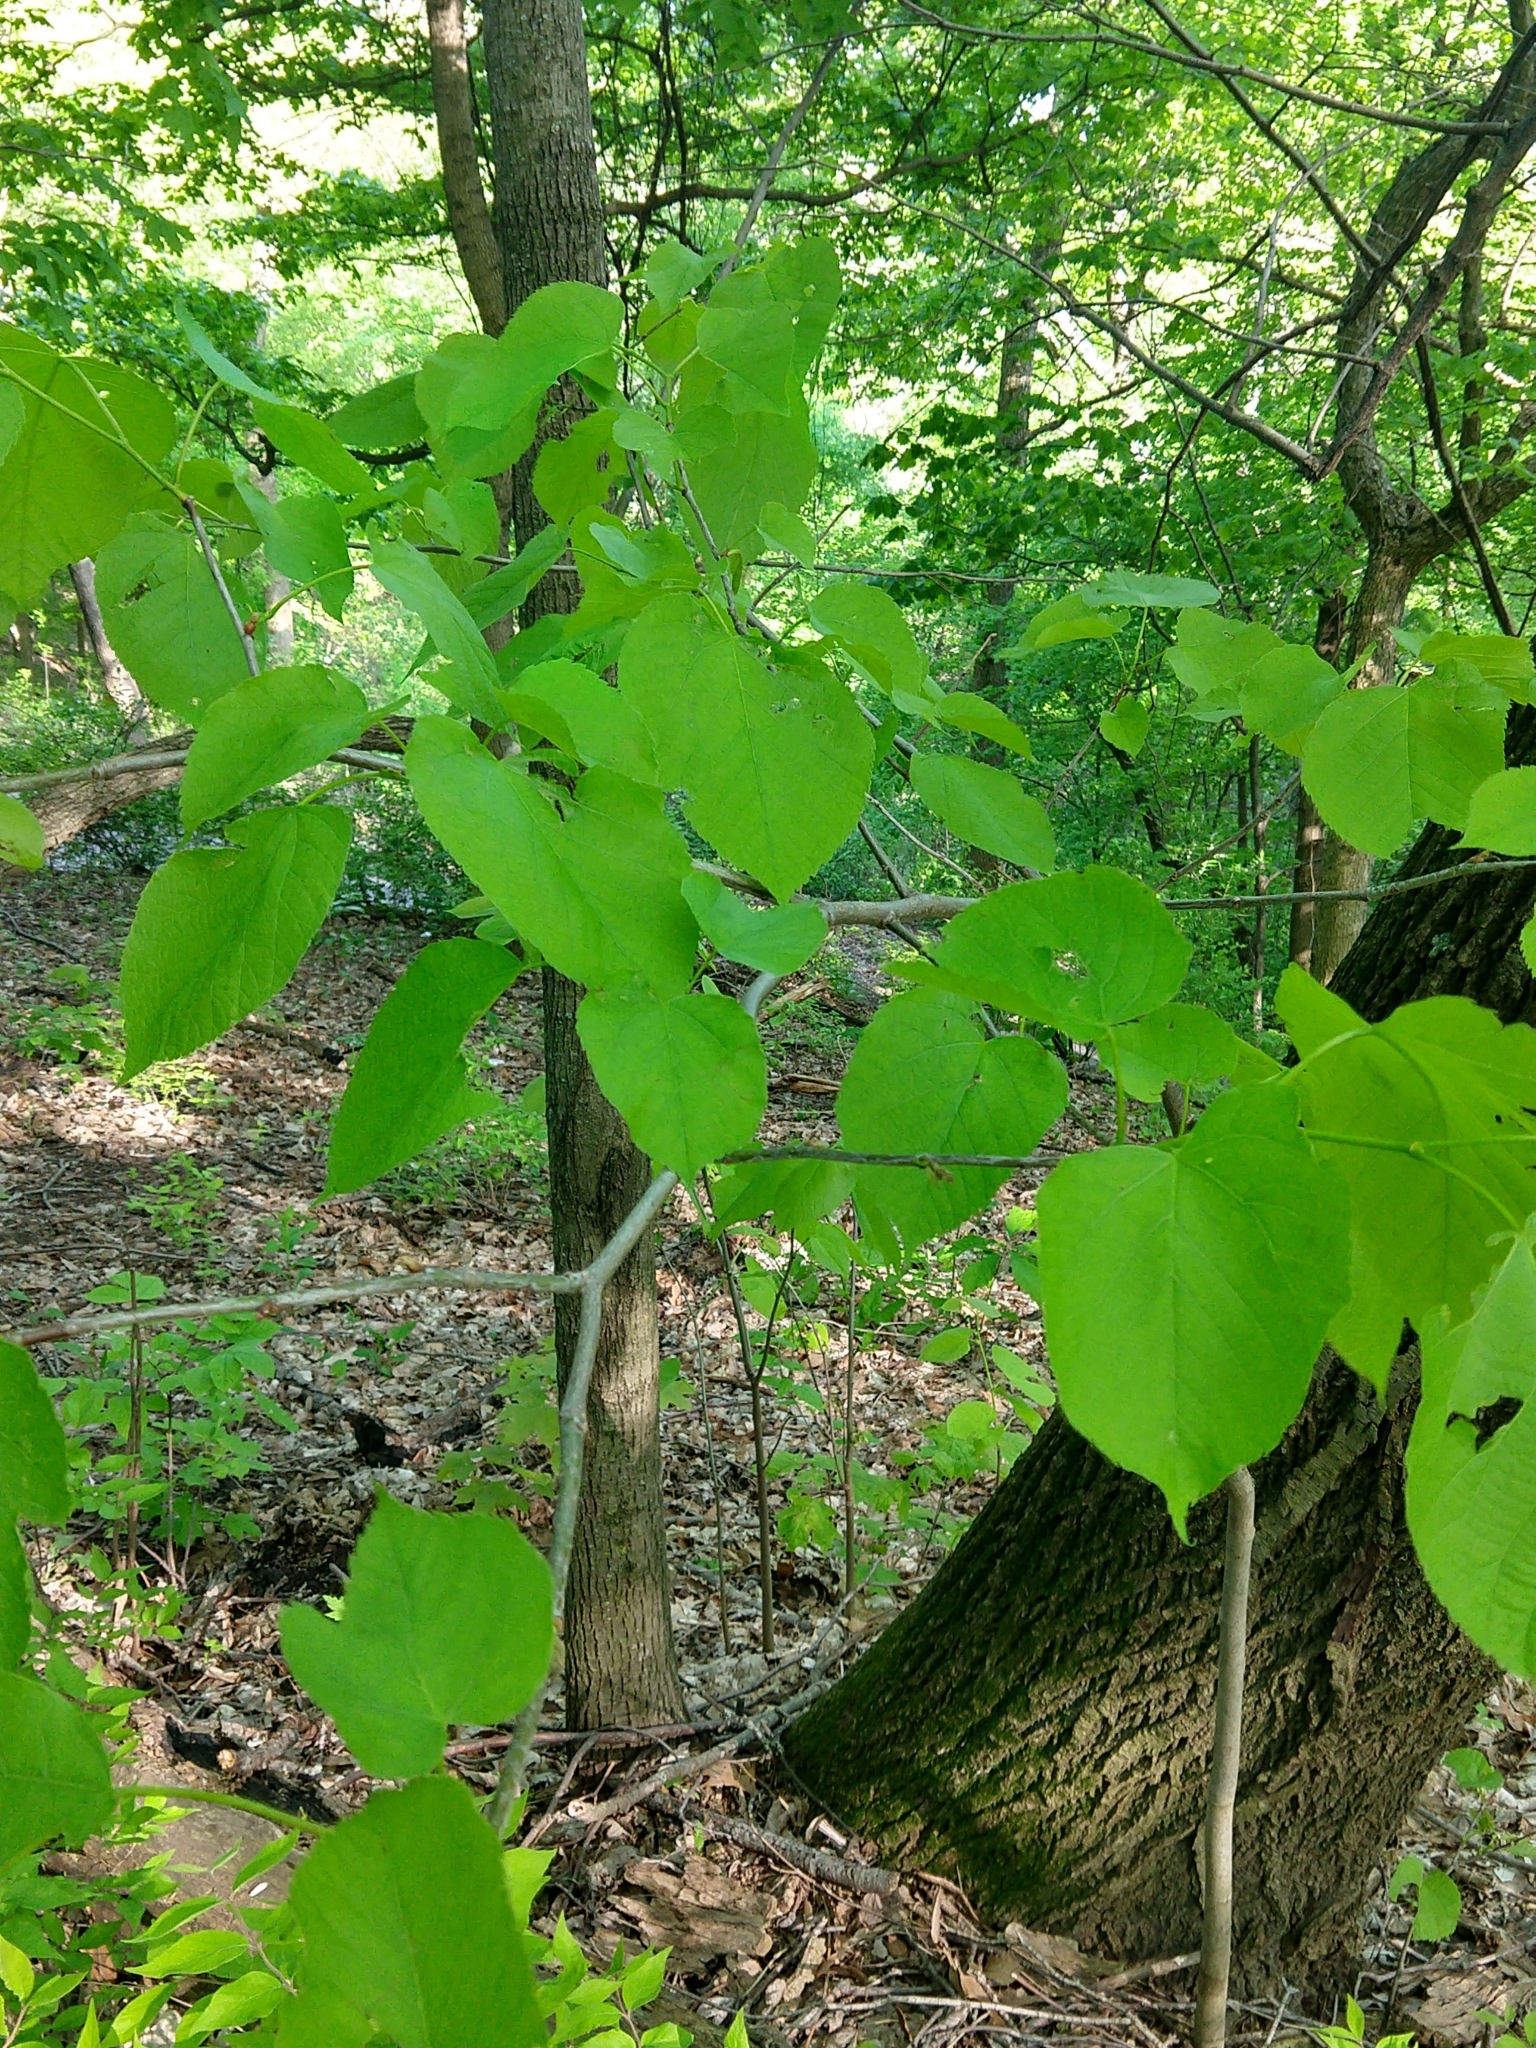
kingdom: Plantae
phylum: Tracheophyta
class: Magnoliopsida
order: Malvales
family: Malvaceae
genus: Tilia
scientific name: Tilia americana
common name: Basswood
